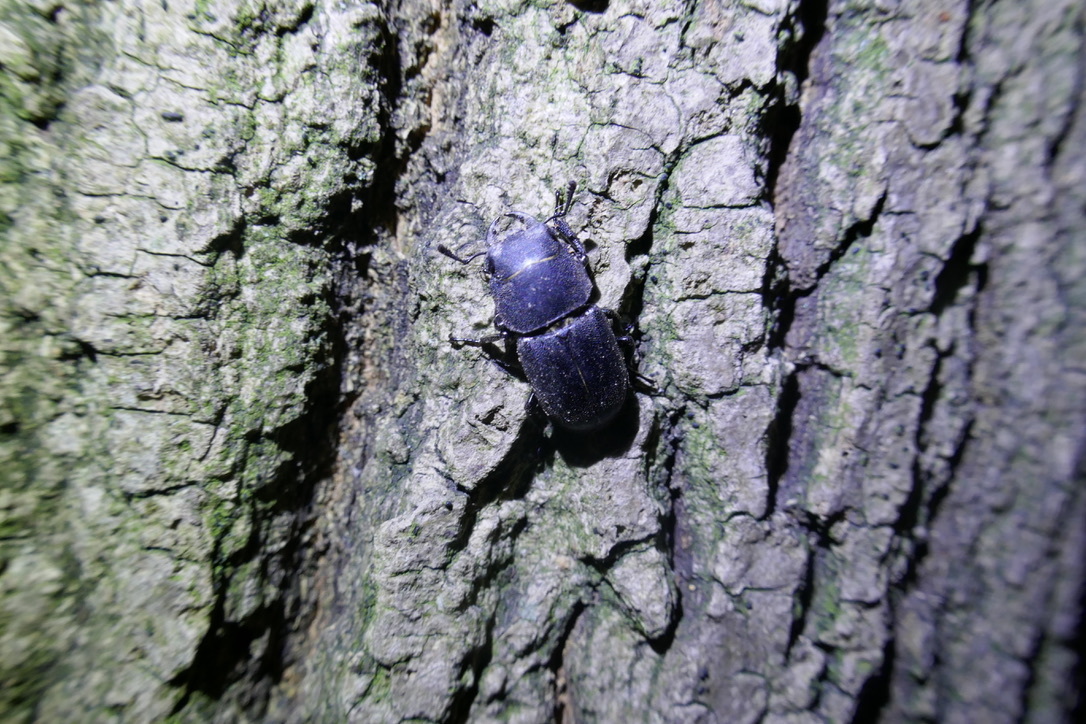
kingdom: Animalia
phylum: Arthropoda
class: Insecta
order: Coleoptera
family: Lucanidae
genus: Dorcus
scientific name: Dorcus parallelipipedus
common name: Lesser stag beetle
